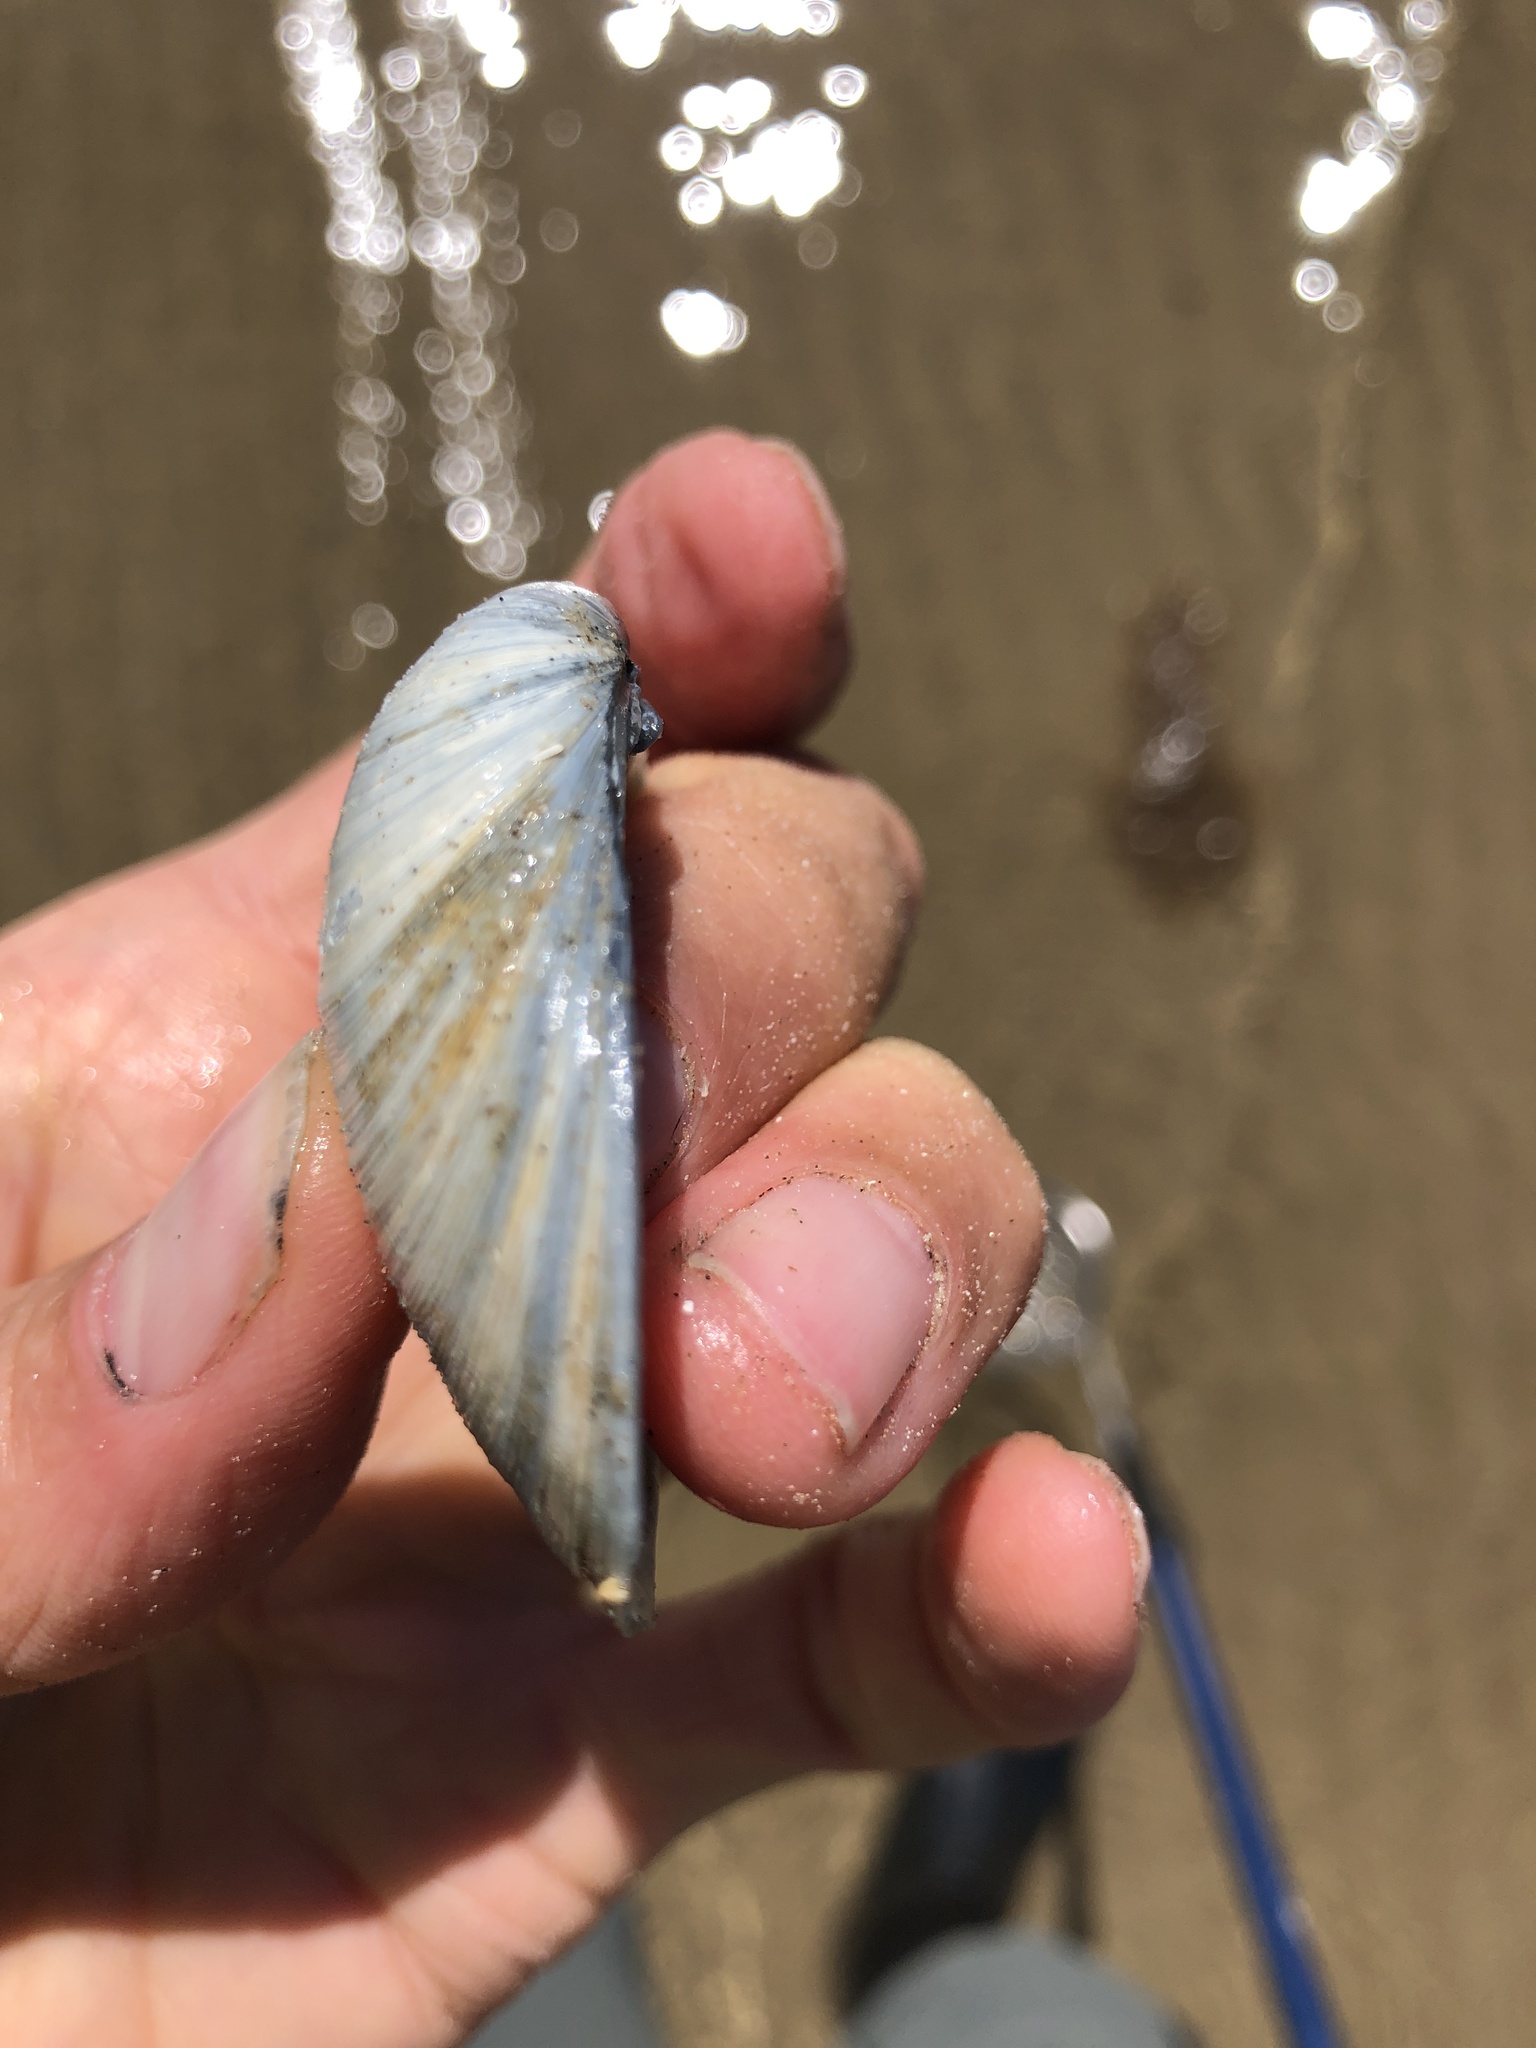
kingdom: Animalia
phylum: Mollusca
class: Bivalvia
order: Venerida
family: Veneridae
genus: Agriopoma
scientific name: Agriopoma texasianum
